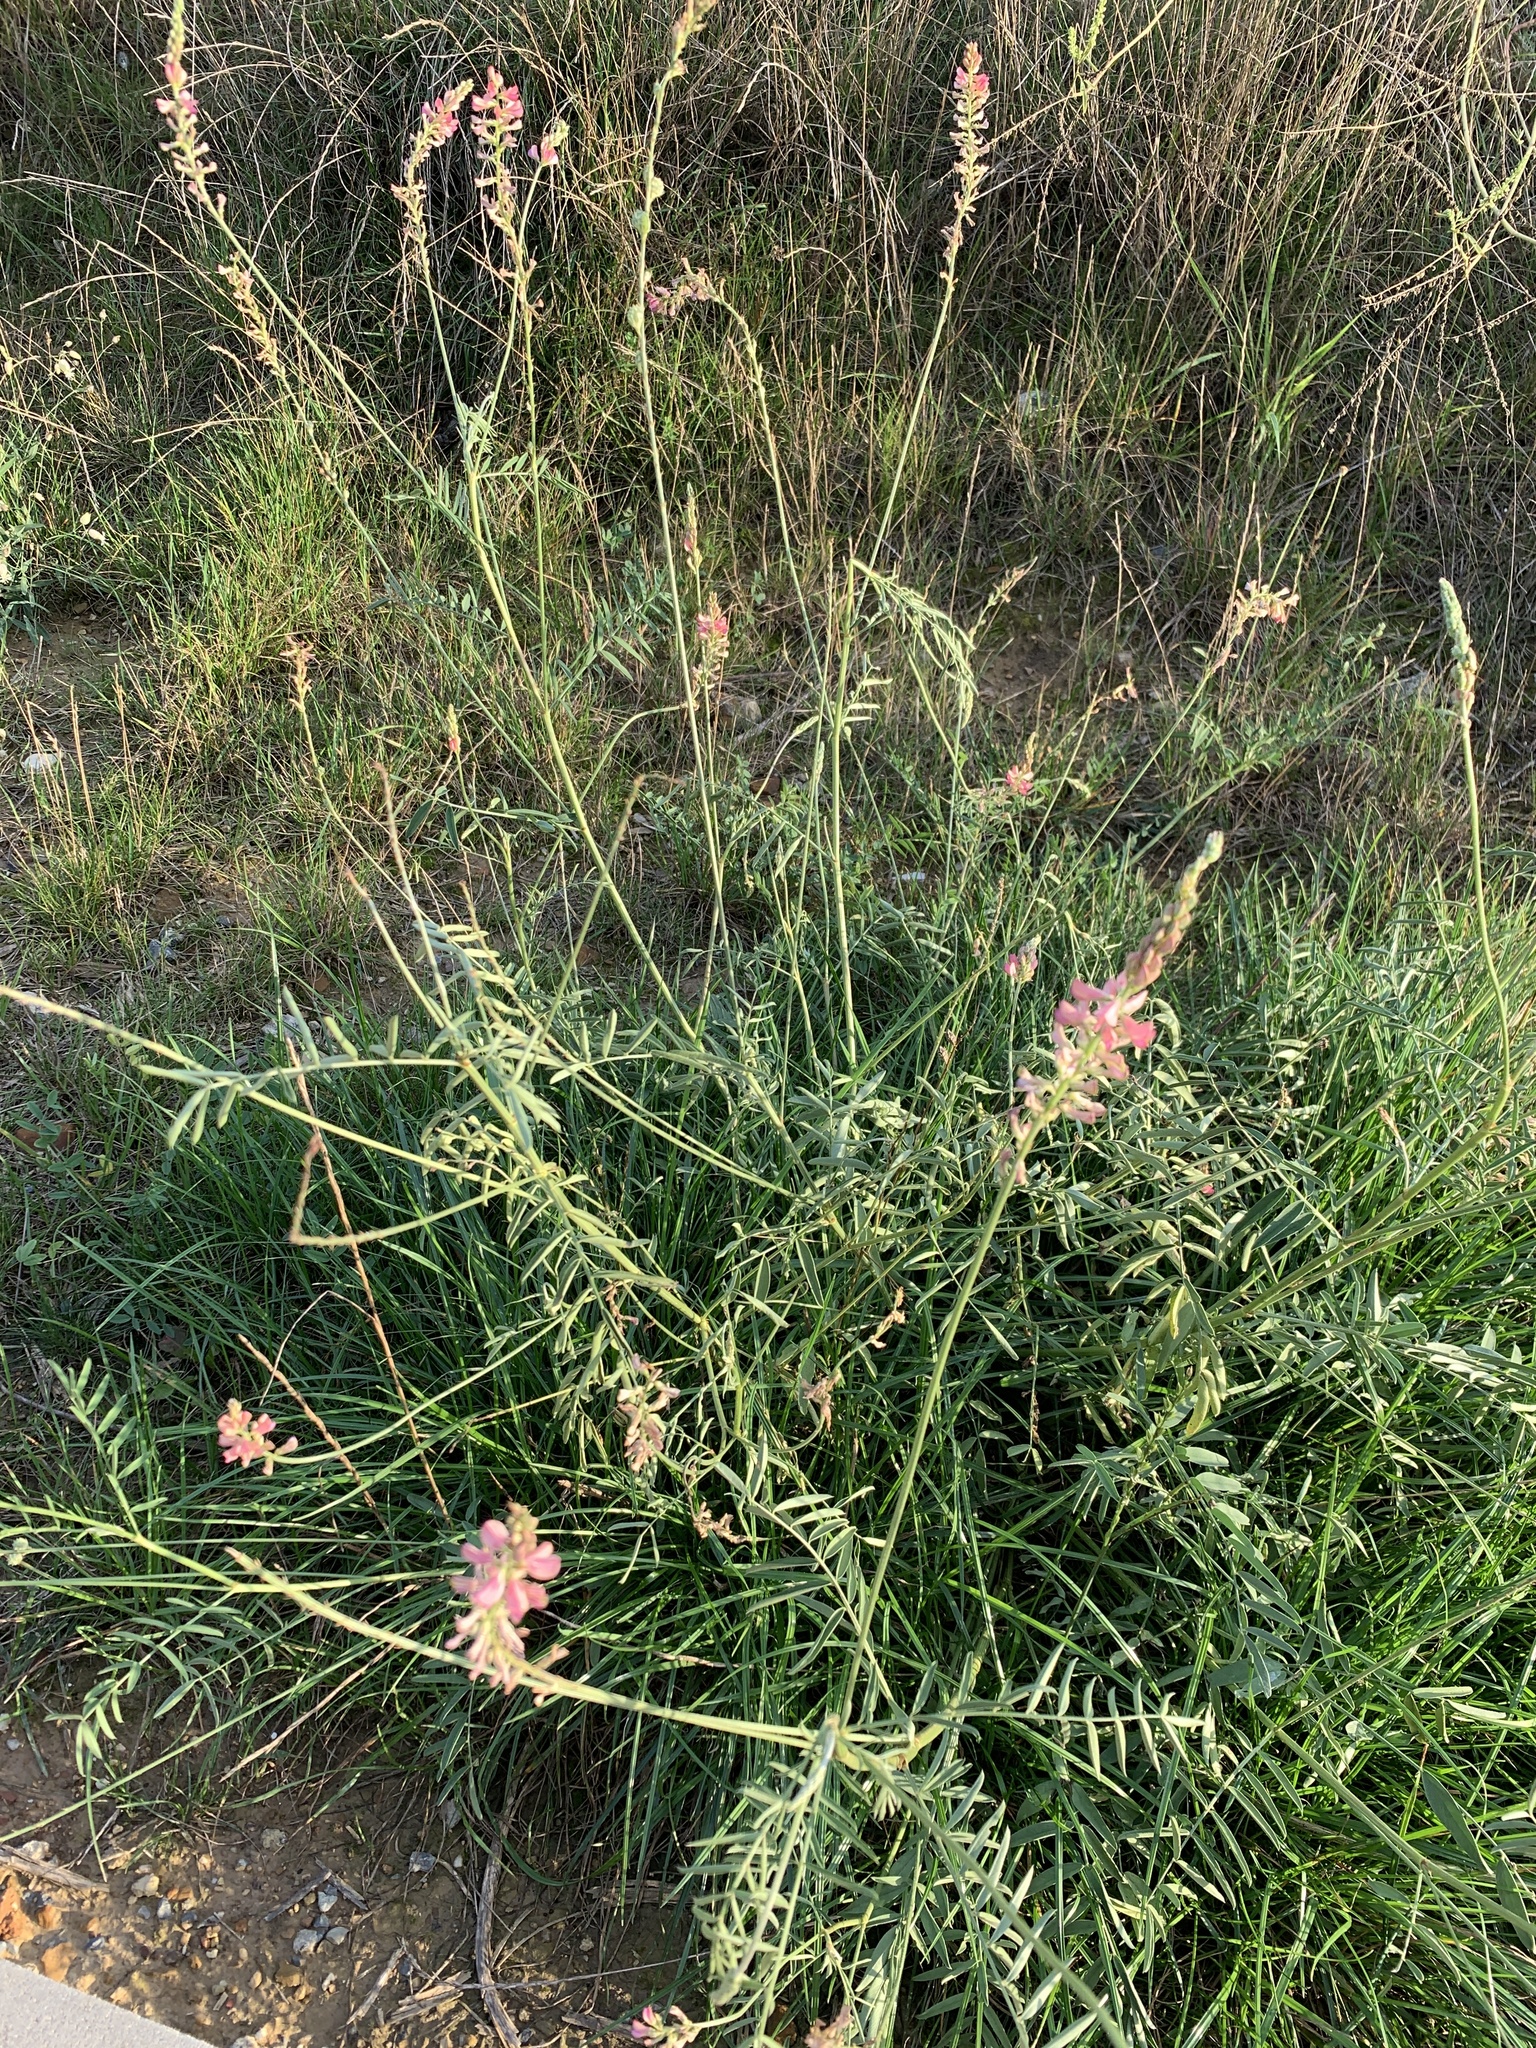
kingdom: Plantae
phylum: Tracheophyta
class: Magnoliopsida
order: Fabales
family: Fabaceae
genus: Onobrychis
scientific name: Onobrychis viciifolia
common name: Sainfoin
